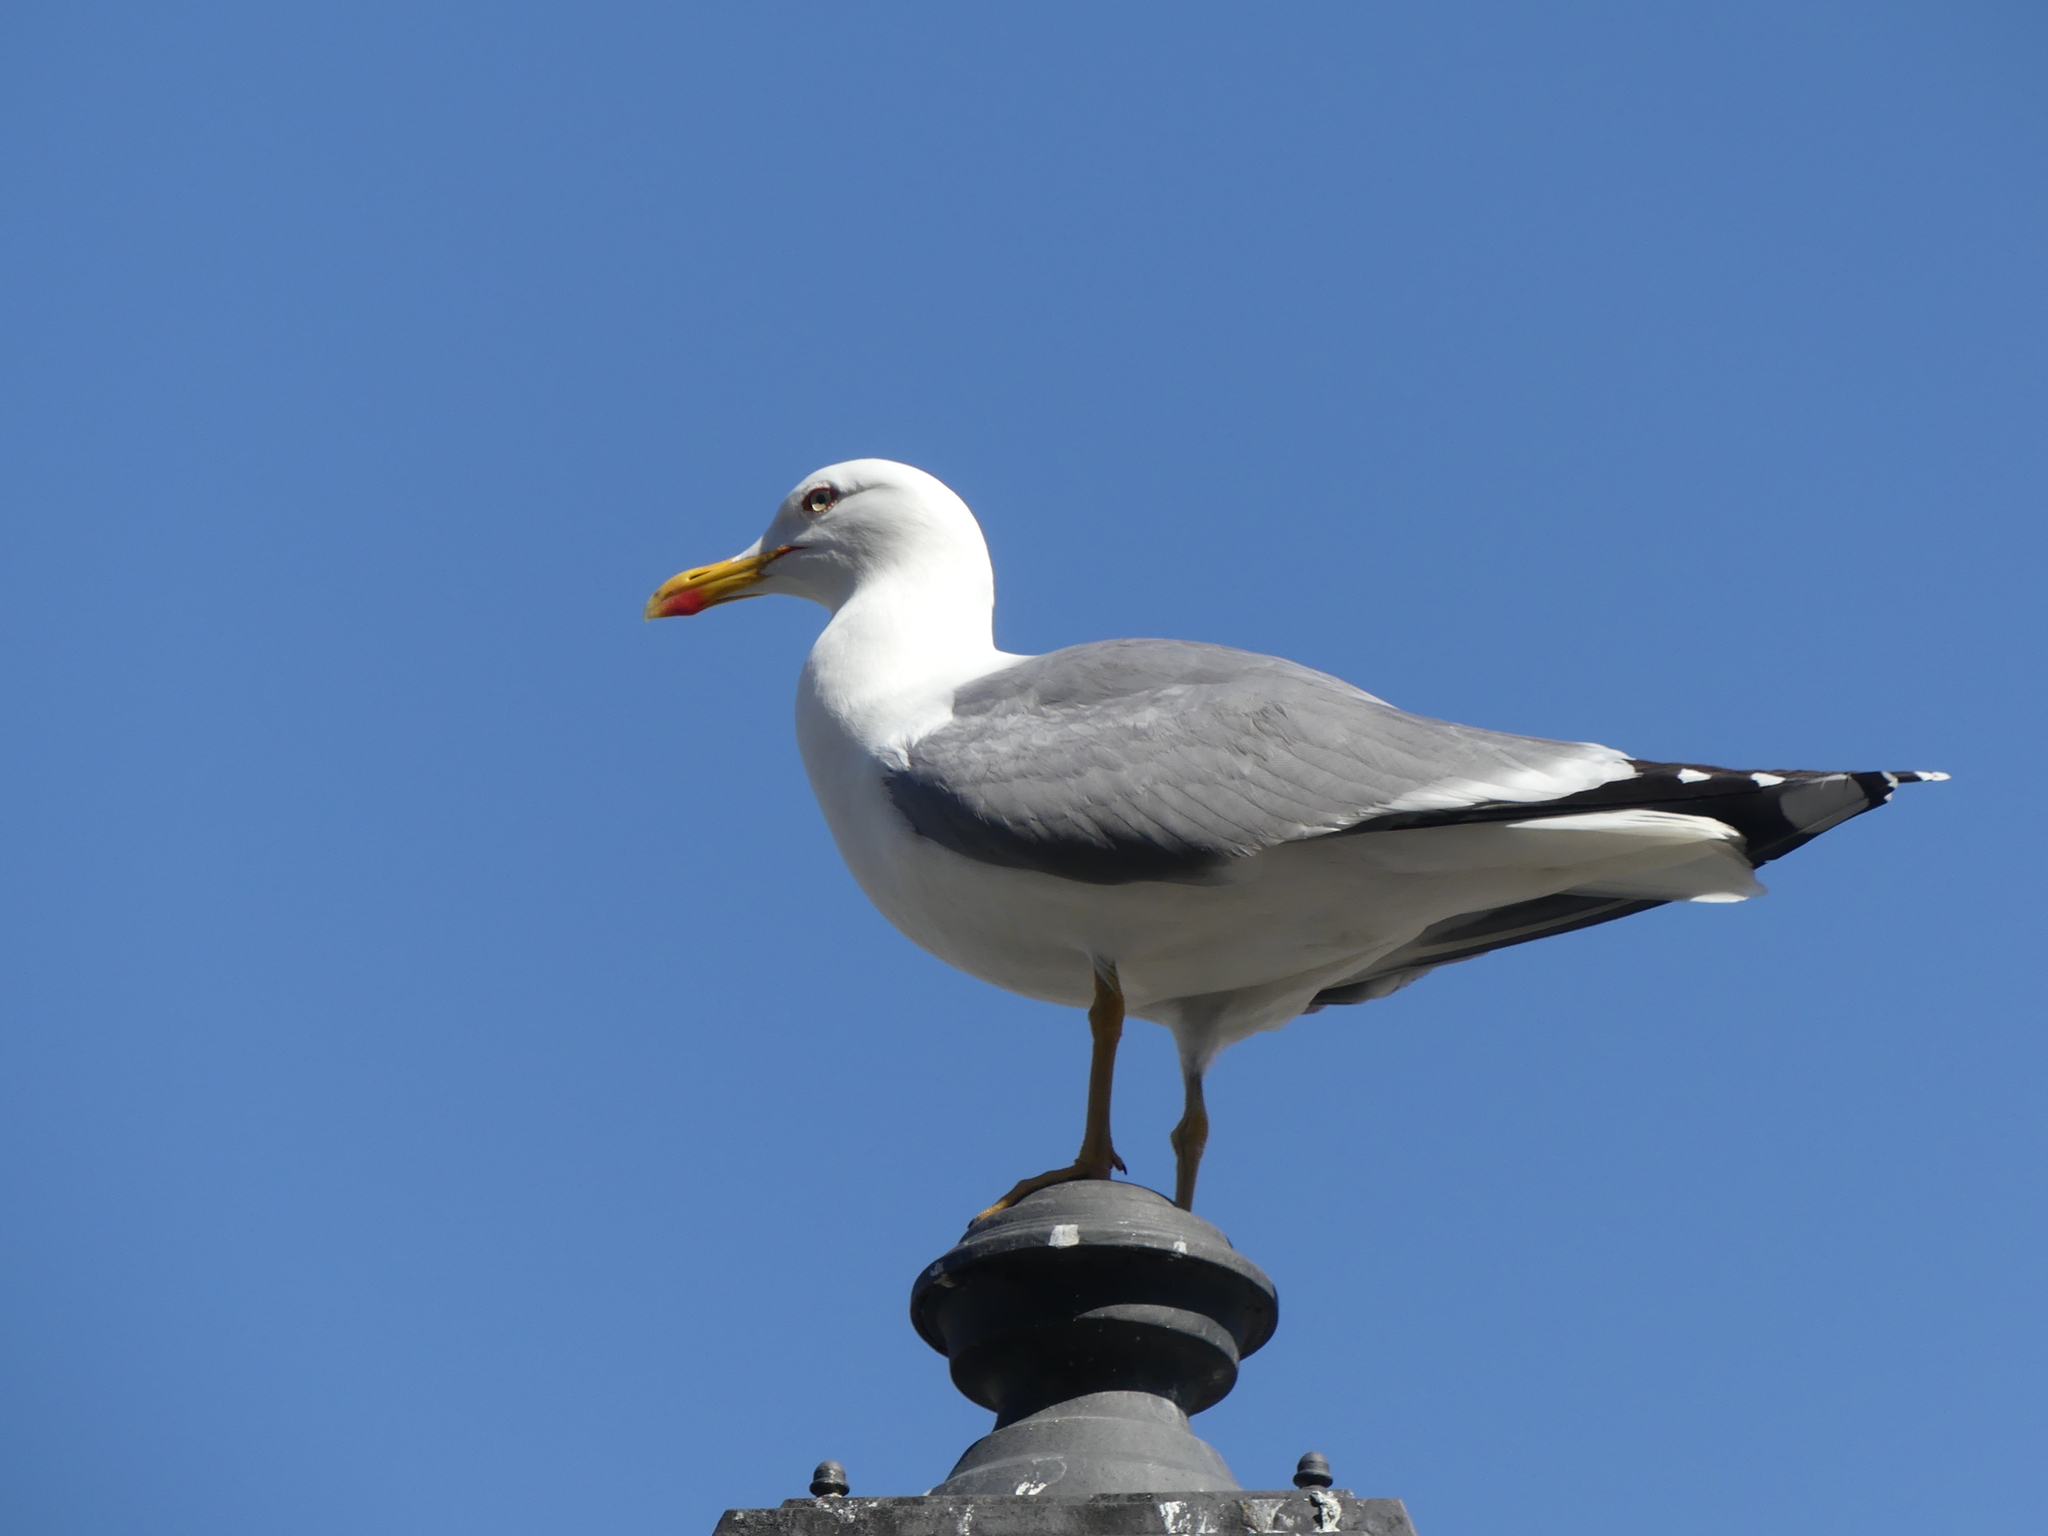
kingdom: Animalia
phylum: Chordata
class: Aves
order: Charadriiformes
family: Laridae
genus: Larus
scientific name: Larus michahellis
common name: Yellow-legged gull
